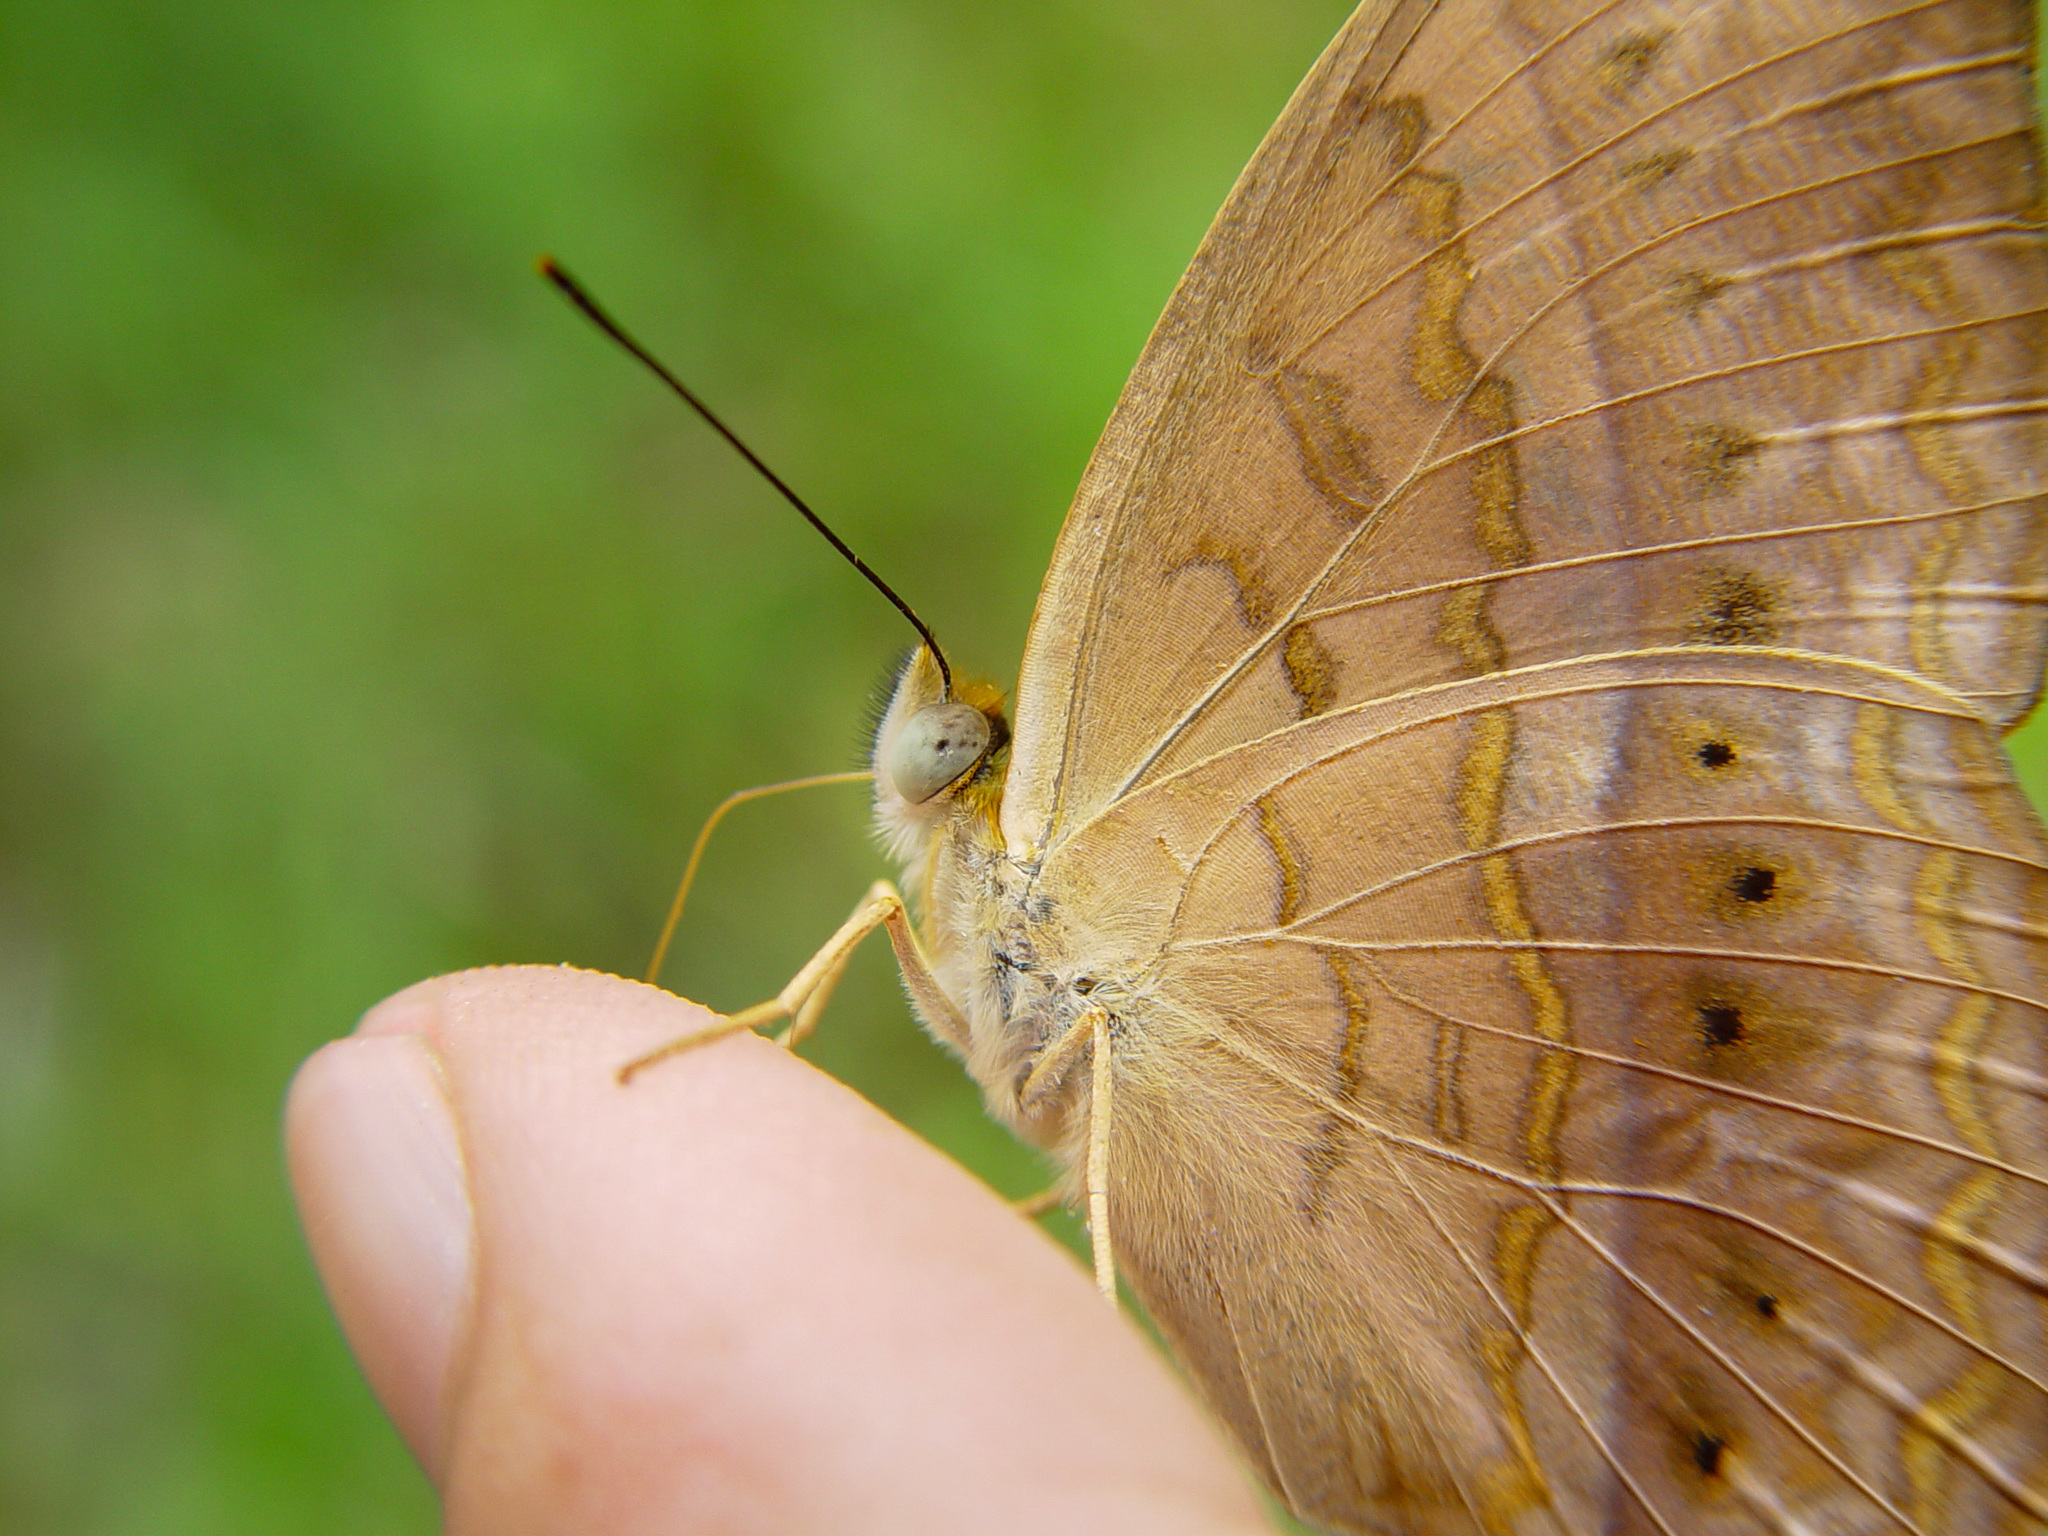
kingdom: Animalia
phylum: Arthropoda
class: Insecta
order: Lepidoptera
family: Nymphalidae
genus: Cirrochroa
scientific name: Cirrochroa tyche
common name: Common yeoman
